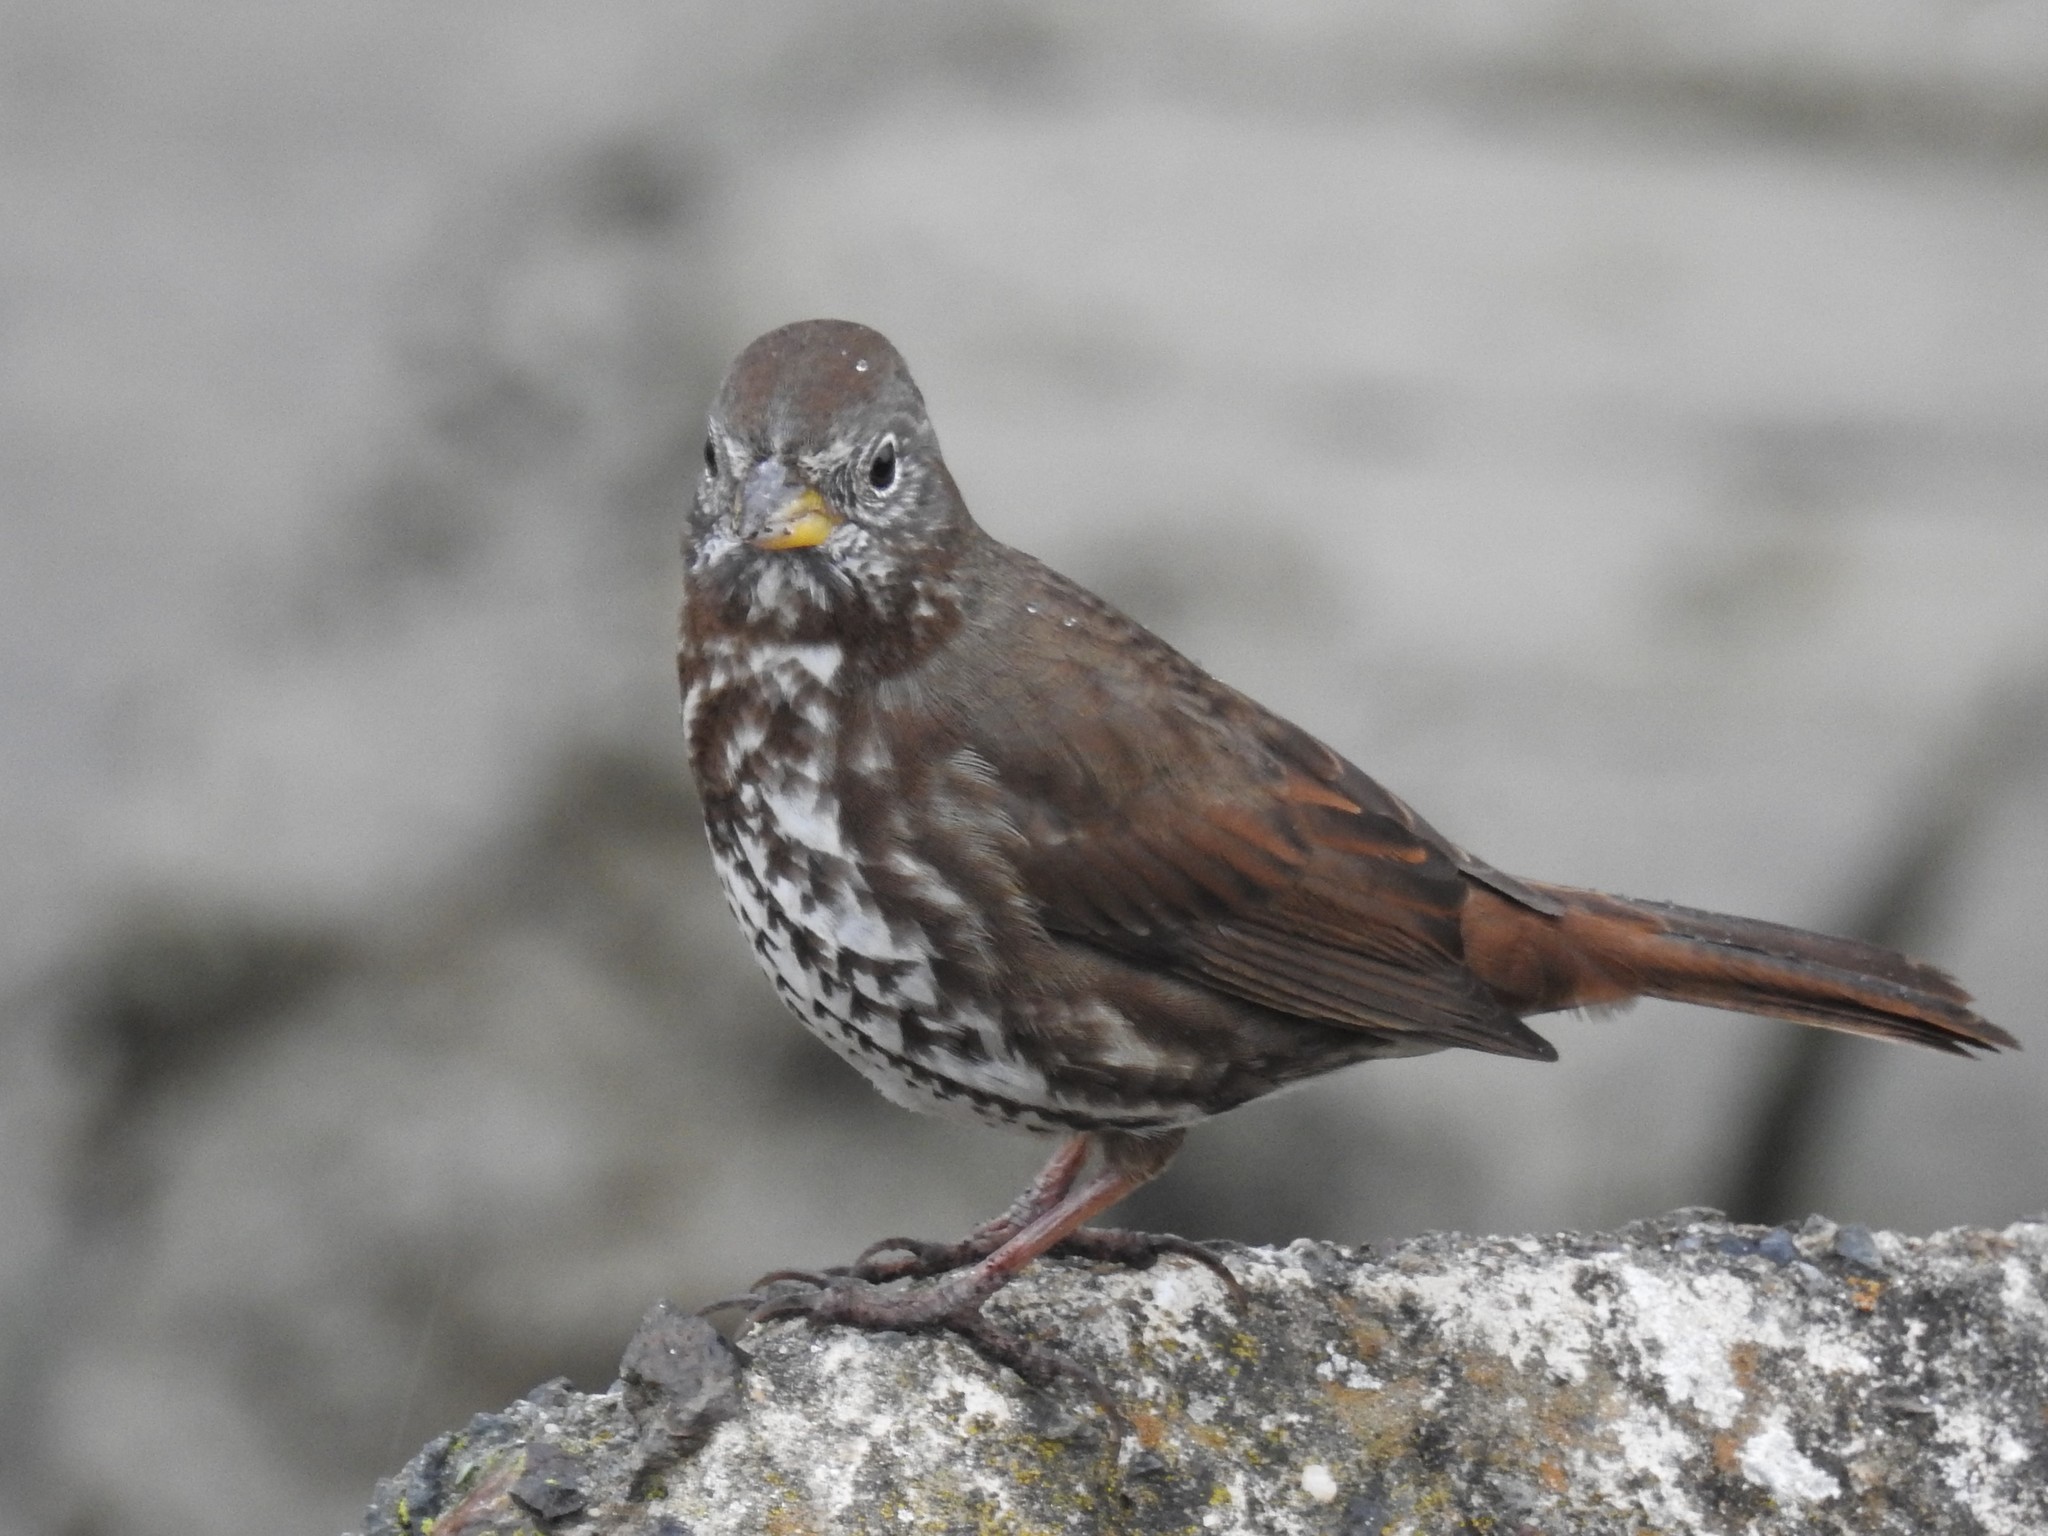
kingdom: Animalia
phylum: Chordata
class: Aves
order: Passeriformes
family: Passerellidae
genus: Passerella
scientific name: Passerella iliaca
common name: Fox sparrow
